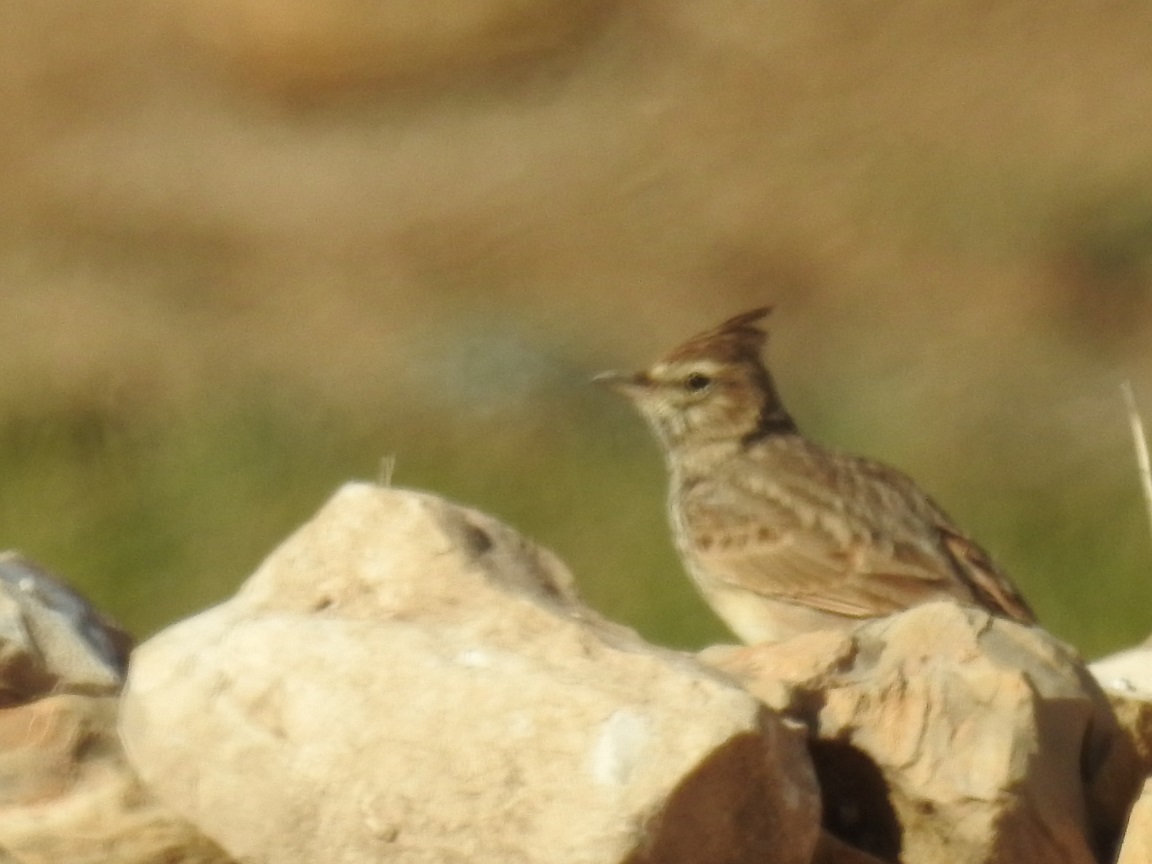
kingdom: Animalia
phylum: Chordata
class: Aves
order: Passeriformes
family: Alaudidae
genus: Galerida
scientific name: Galerida theklae
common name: Thekla lark
